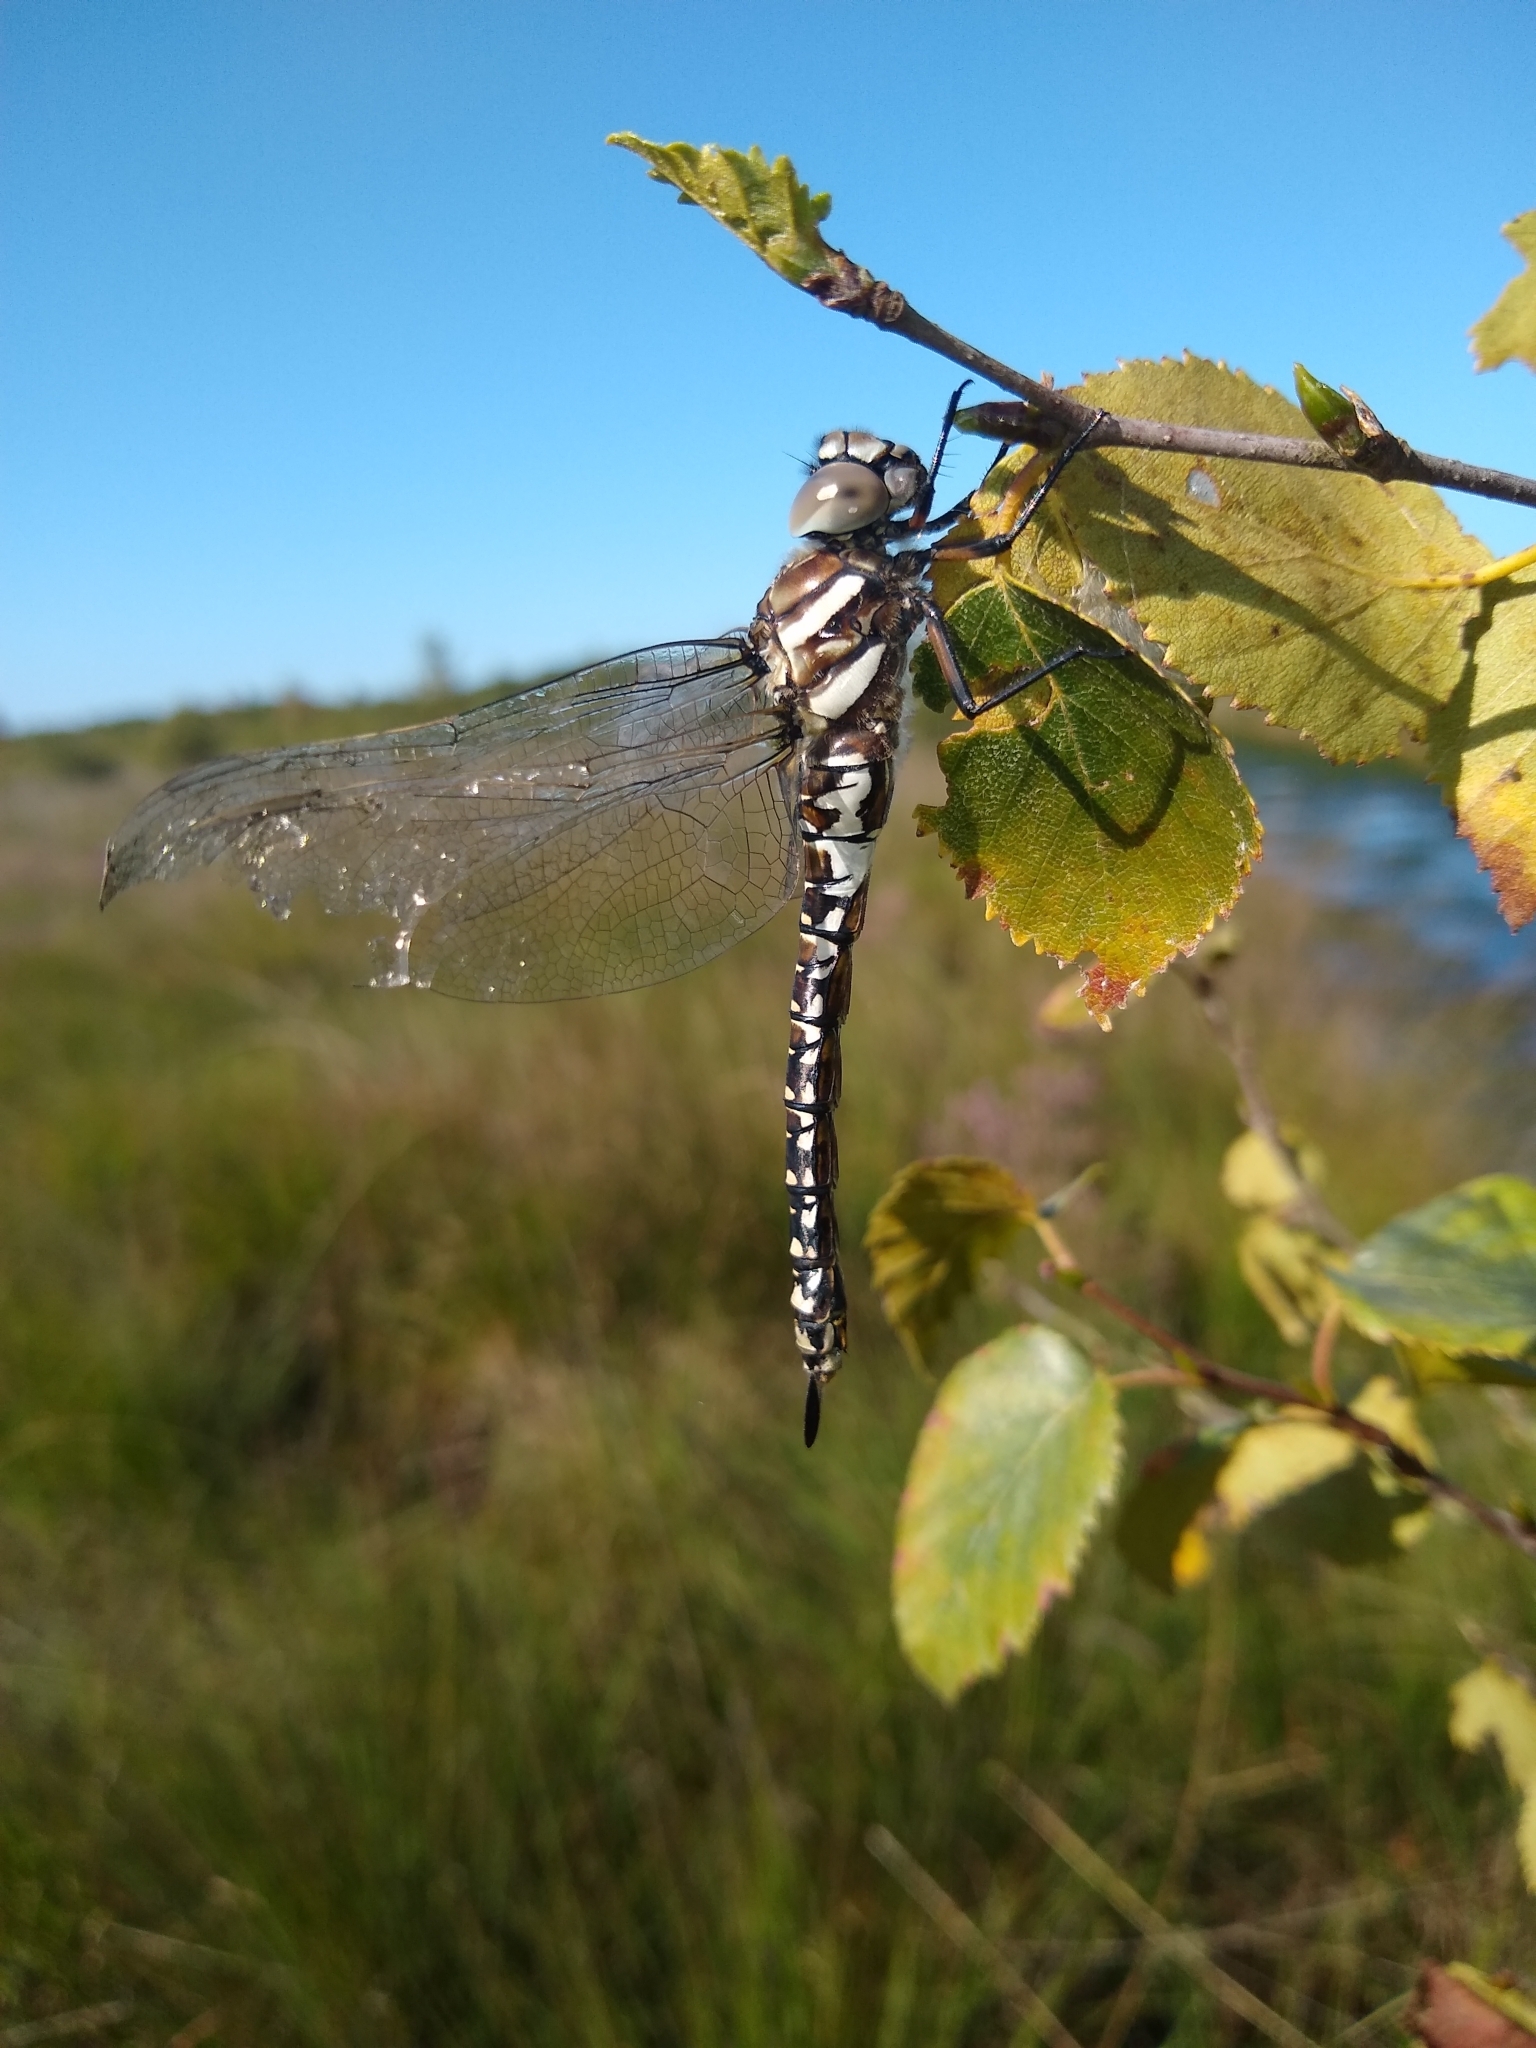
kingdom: Animalia
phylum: Arthropoda
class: Insecta
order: Odonata
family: Aeshnidae
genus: Aeshna
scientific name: Aeshna subarctica
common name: Subarctic darner
